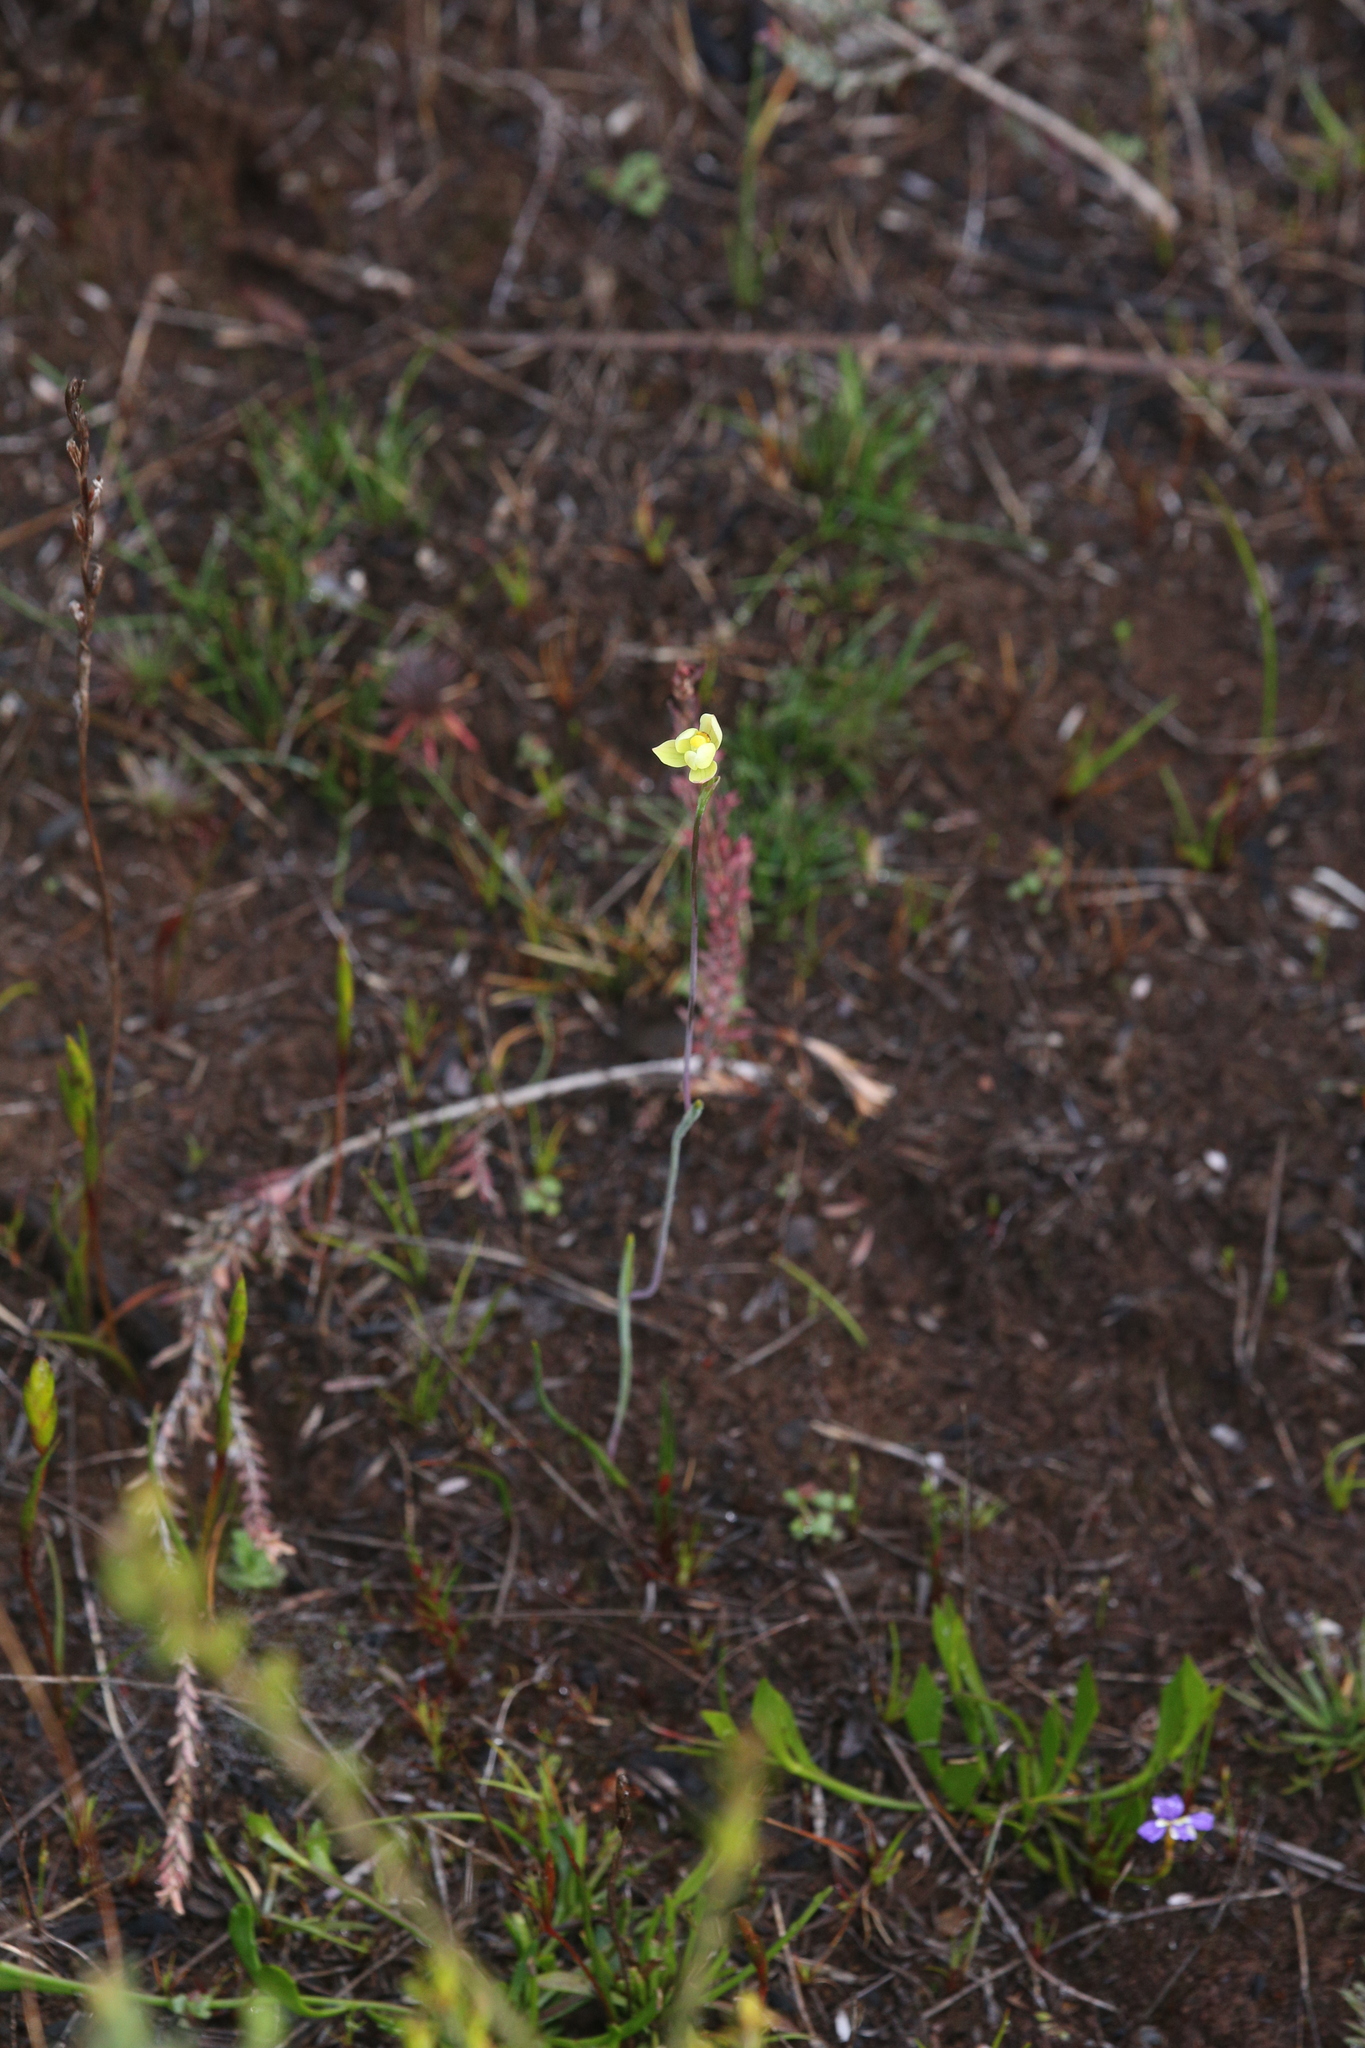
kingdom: Plantae
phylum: Tracheophyta
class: Liliopsida
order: Asparagales
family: Orchidaceae
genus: Thelymitra
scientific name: Thelymitra flexuosa
